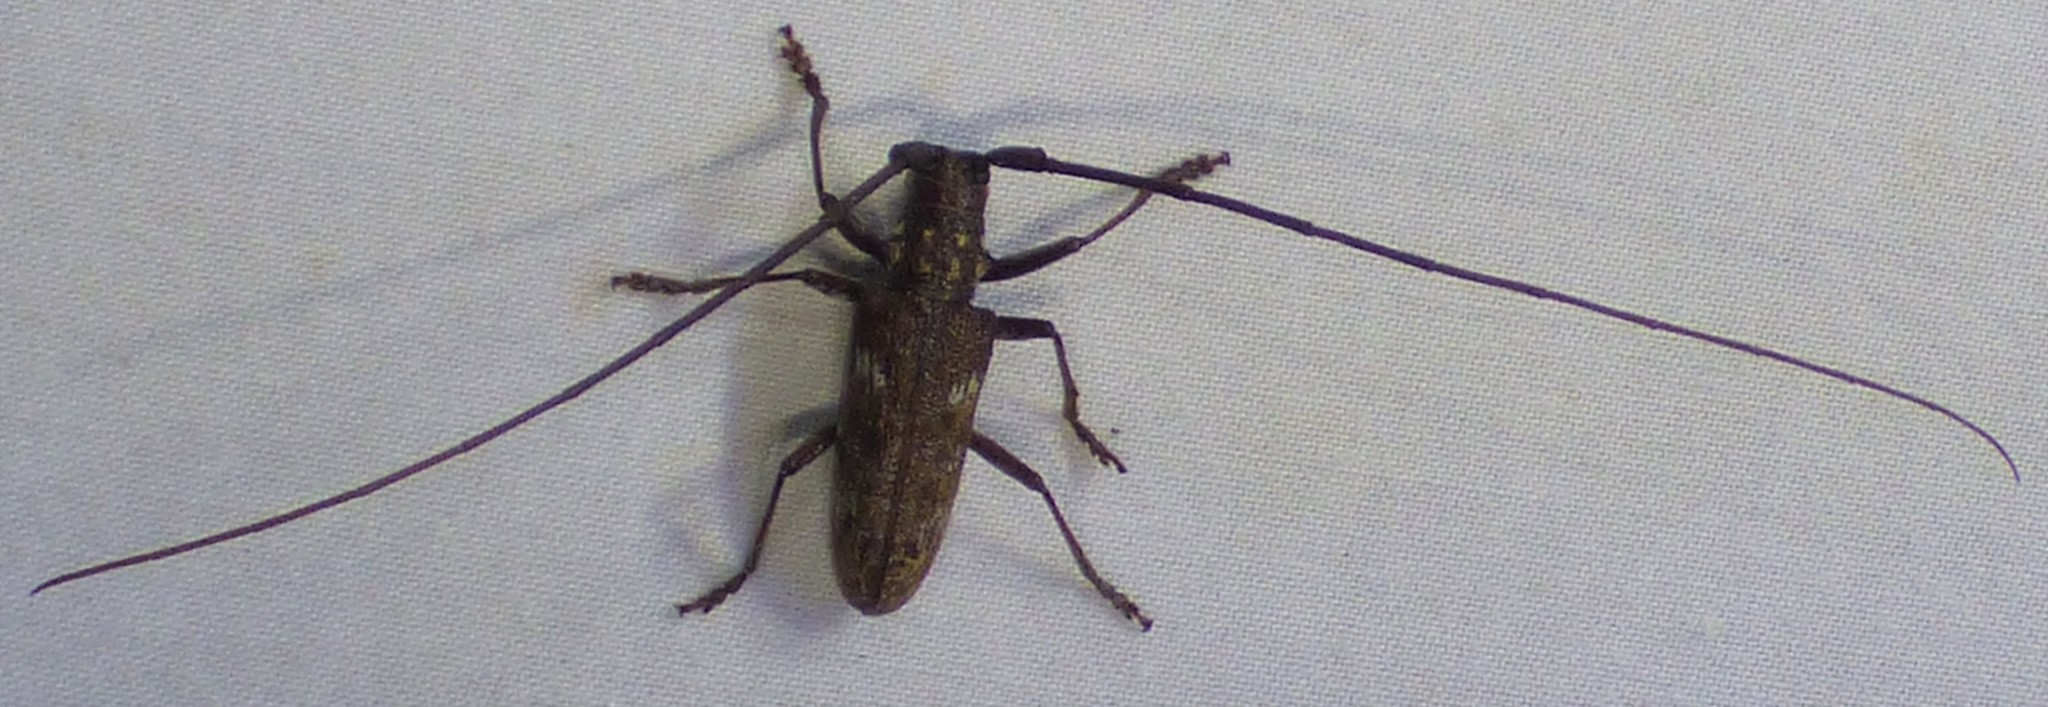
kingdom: Animalia
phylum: Arthropoda
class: Insecta
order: Coleoptera
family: Cerambycidae
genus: Monochamus
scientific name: Monochamus carolinensis
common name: Carolina pine sawyer
